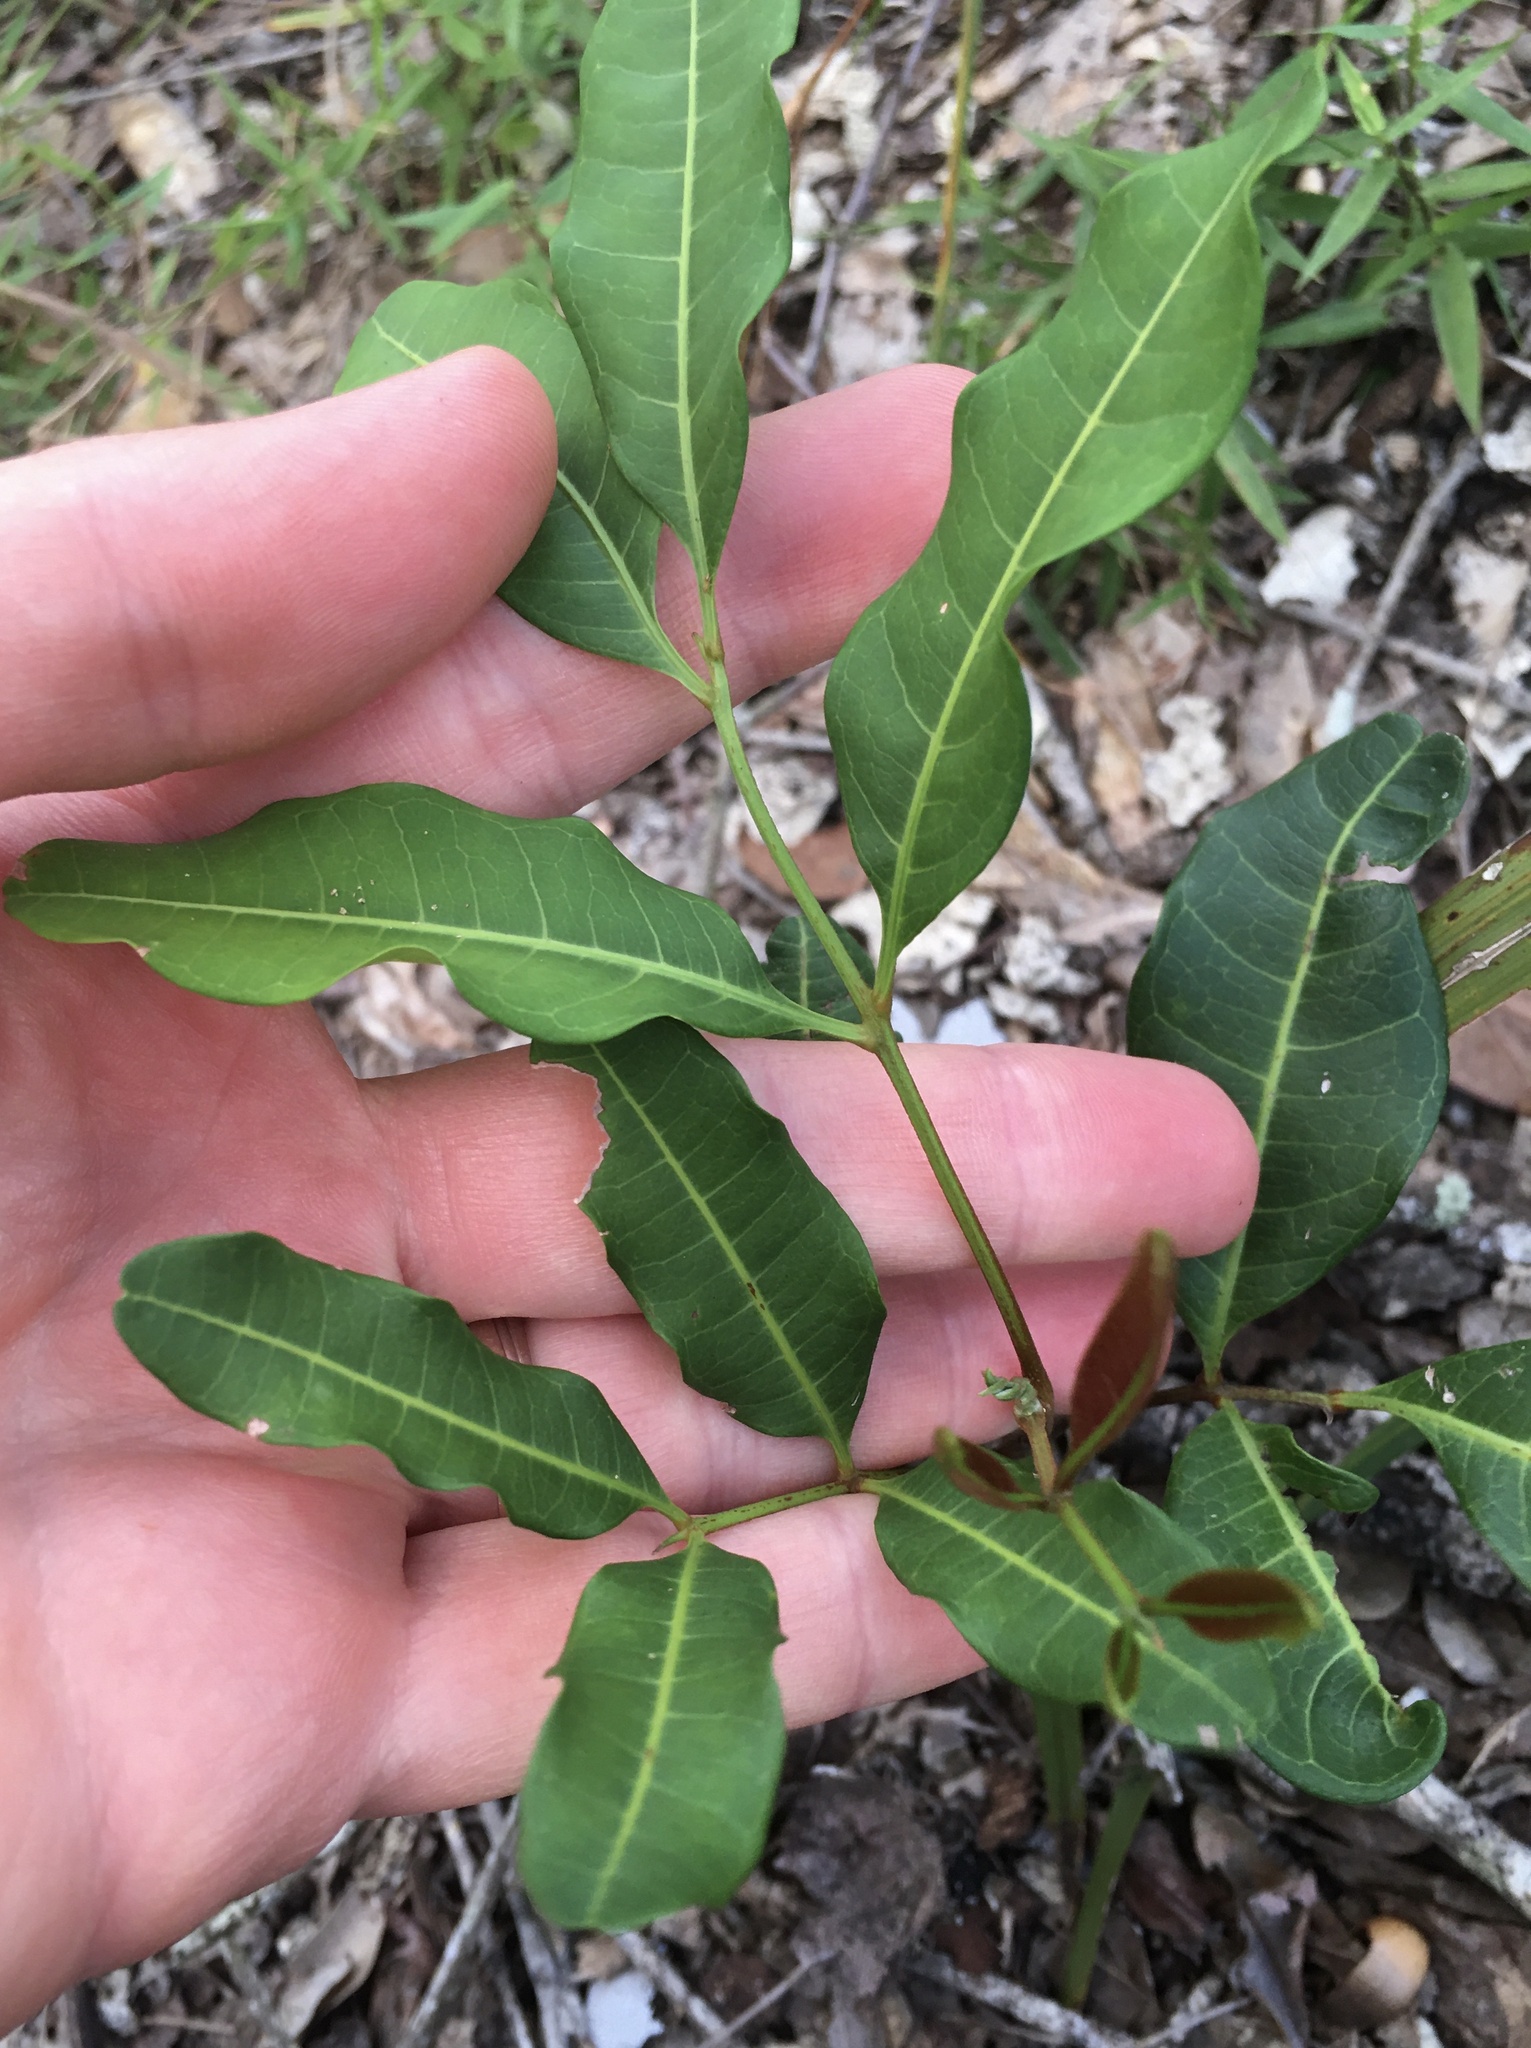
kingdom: Plantae
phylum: Tracheophyta
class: Magnoliopsida
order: Sapindales
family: Sapindaceae
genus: Cupaniopsis
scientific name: Cupaniopsis anacardioides
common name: Carrotwood
